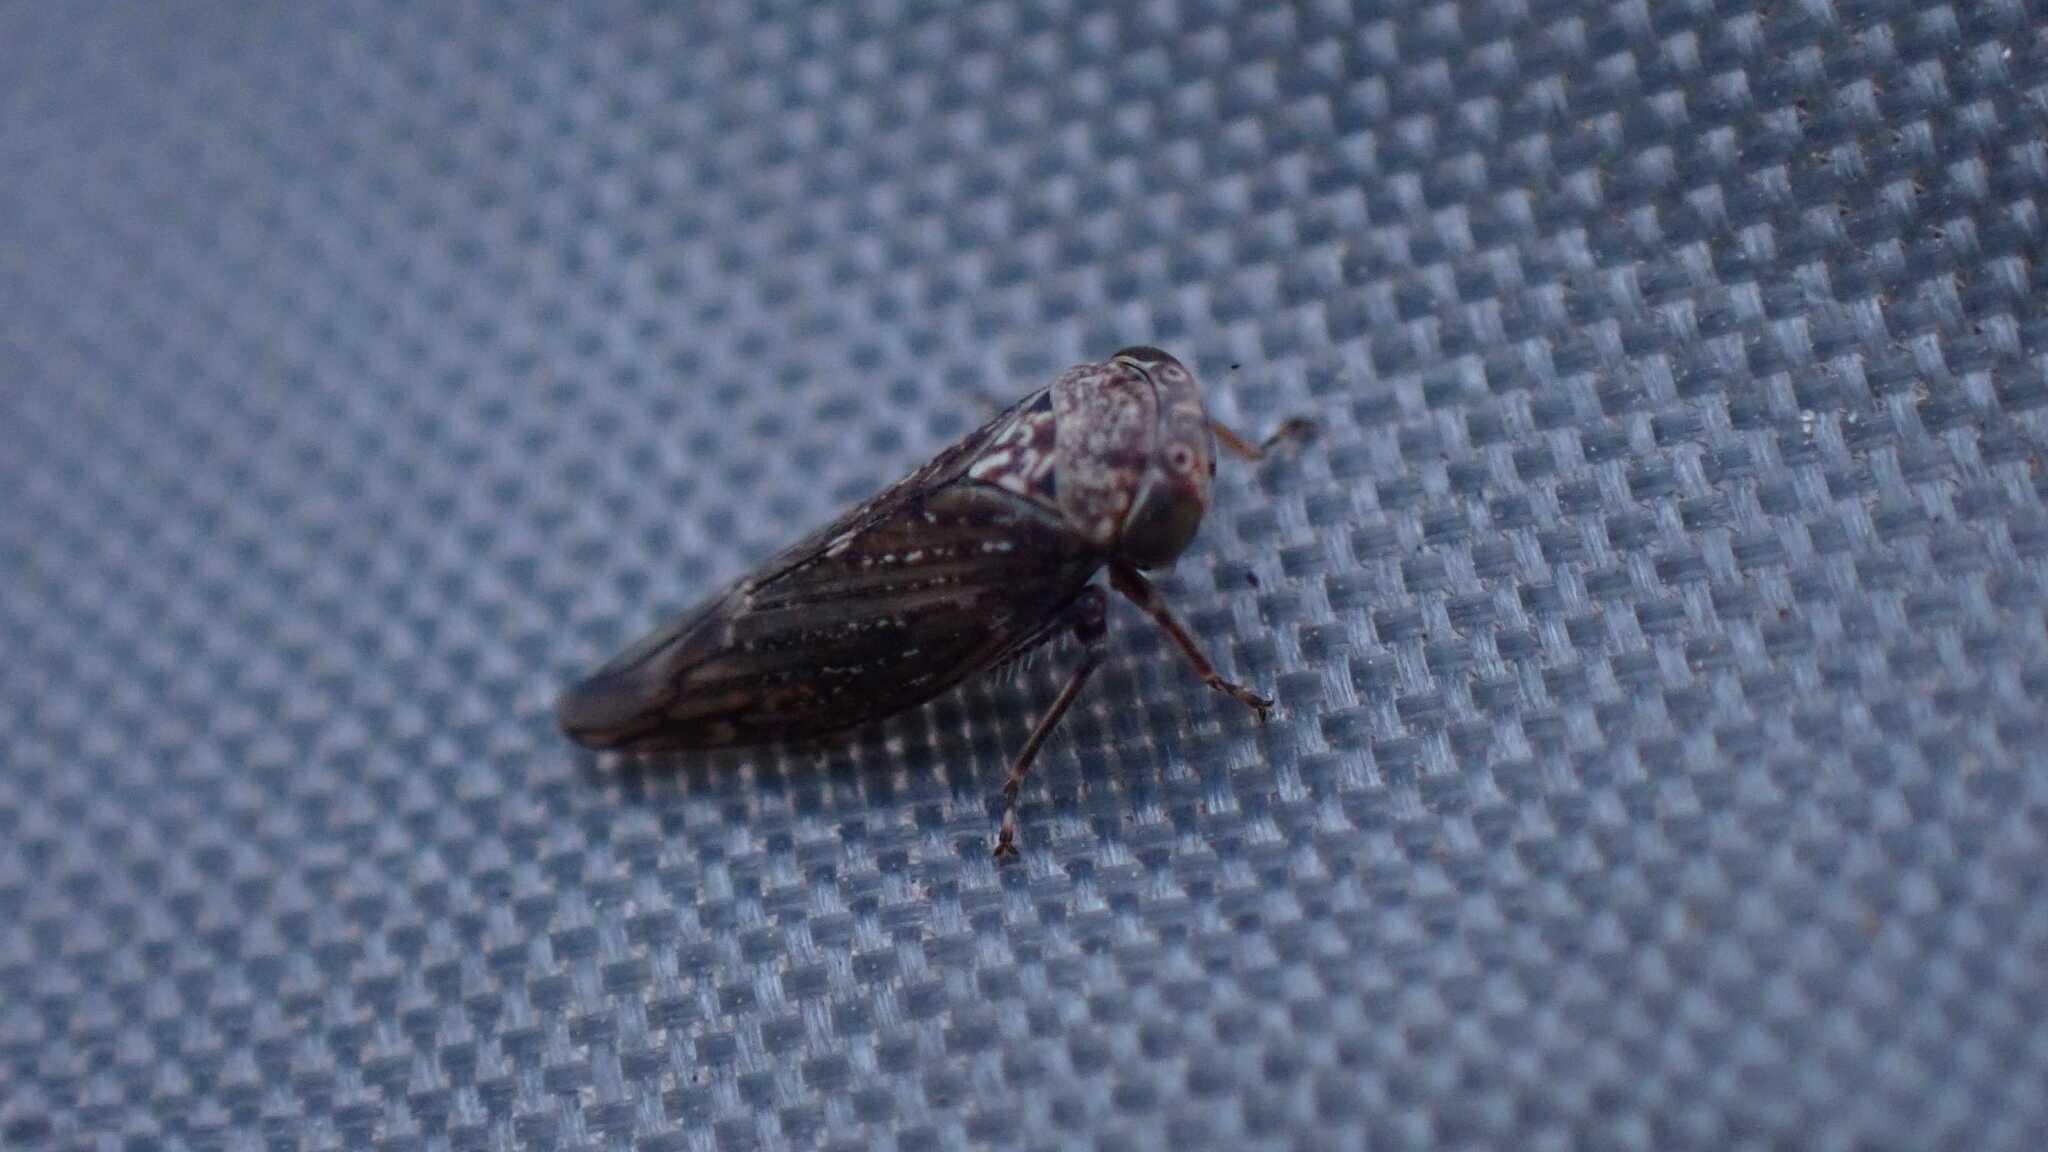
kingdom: Animalia
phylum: Arthropoda
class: Insecta
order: Hemiptera
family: Cicadellidae
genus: Acericerus
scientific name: Acericerus ribauti
